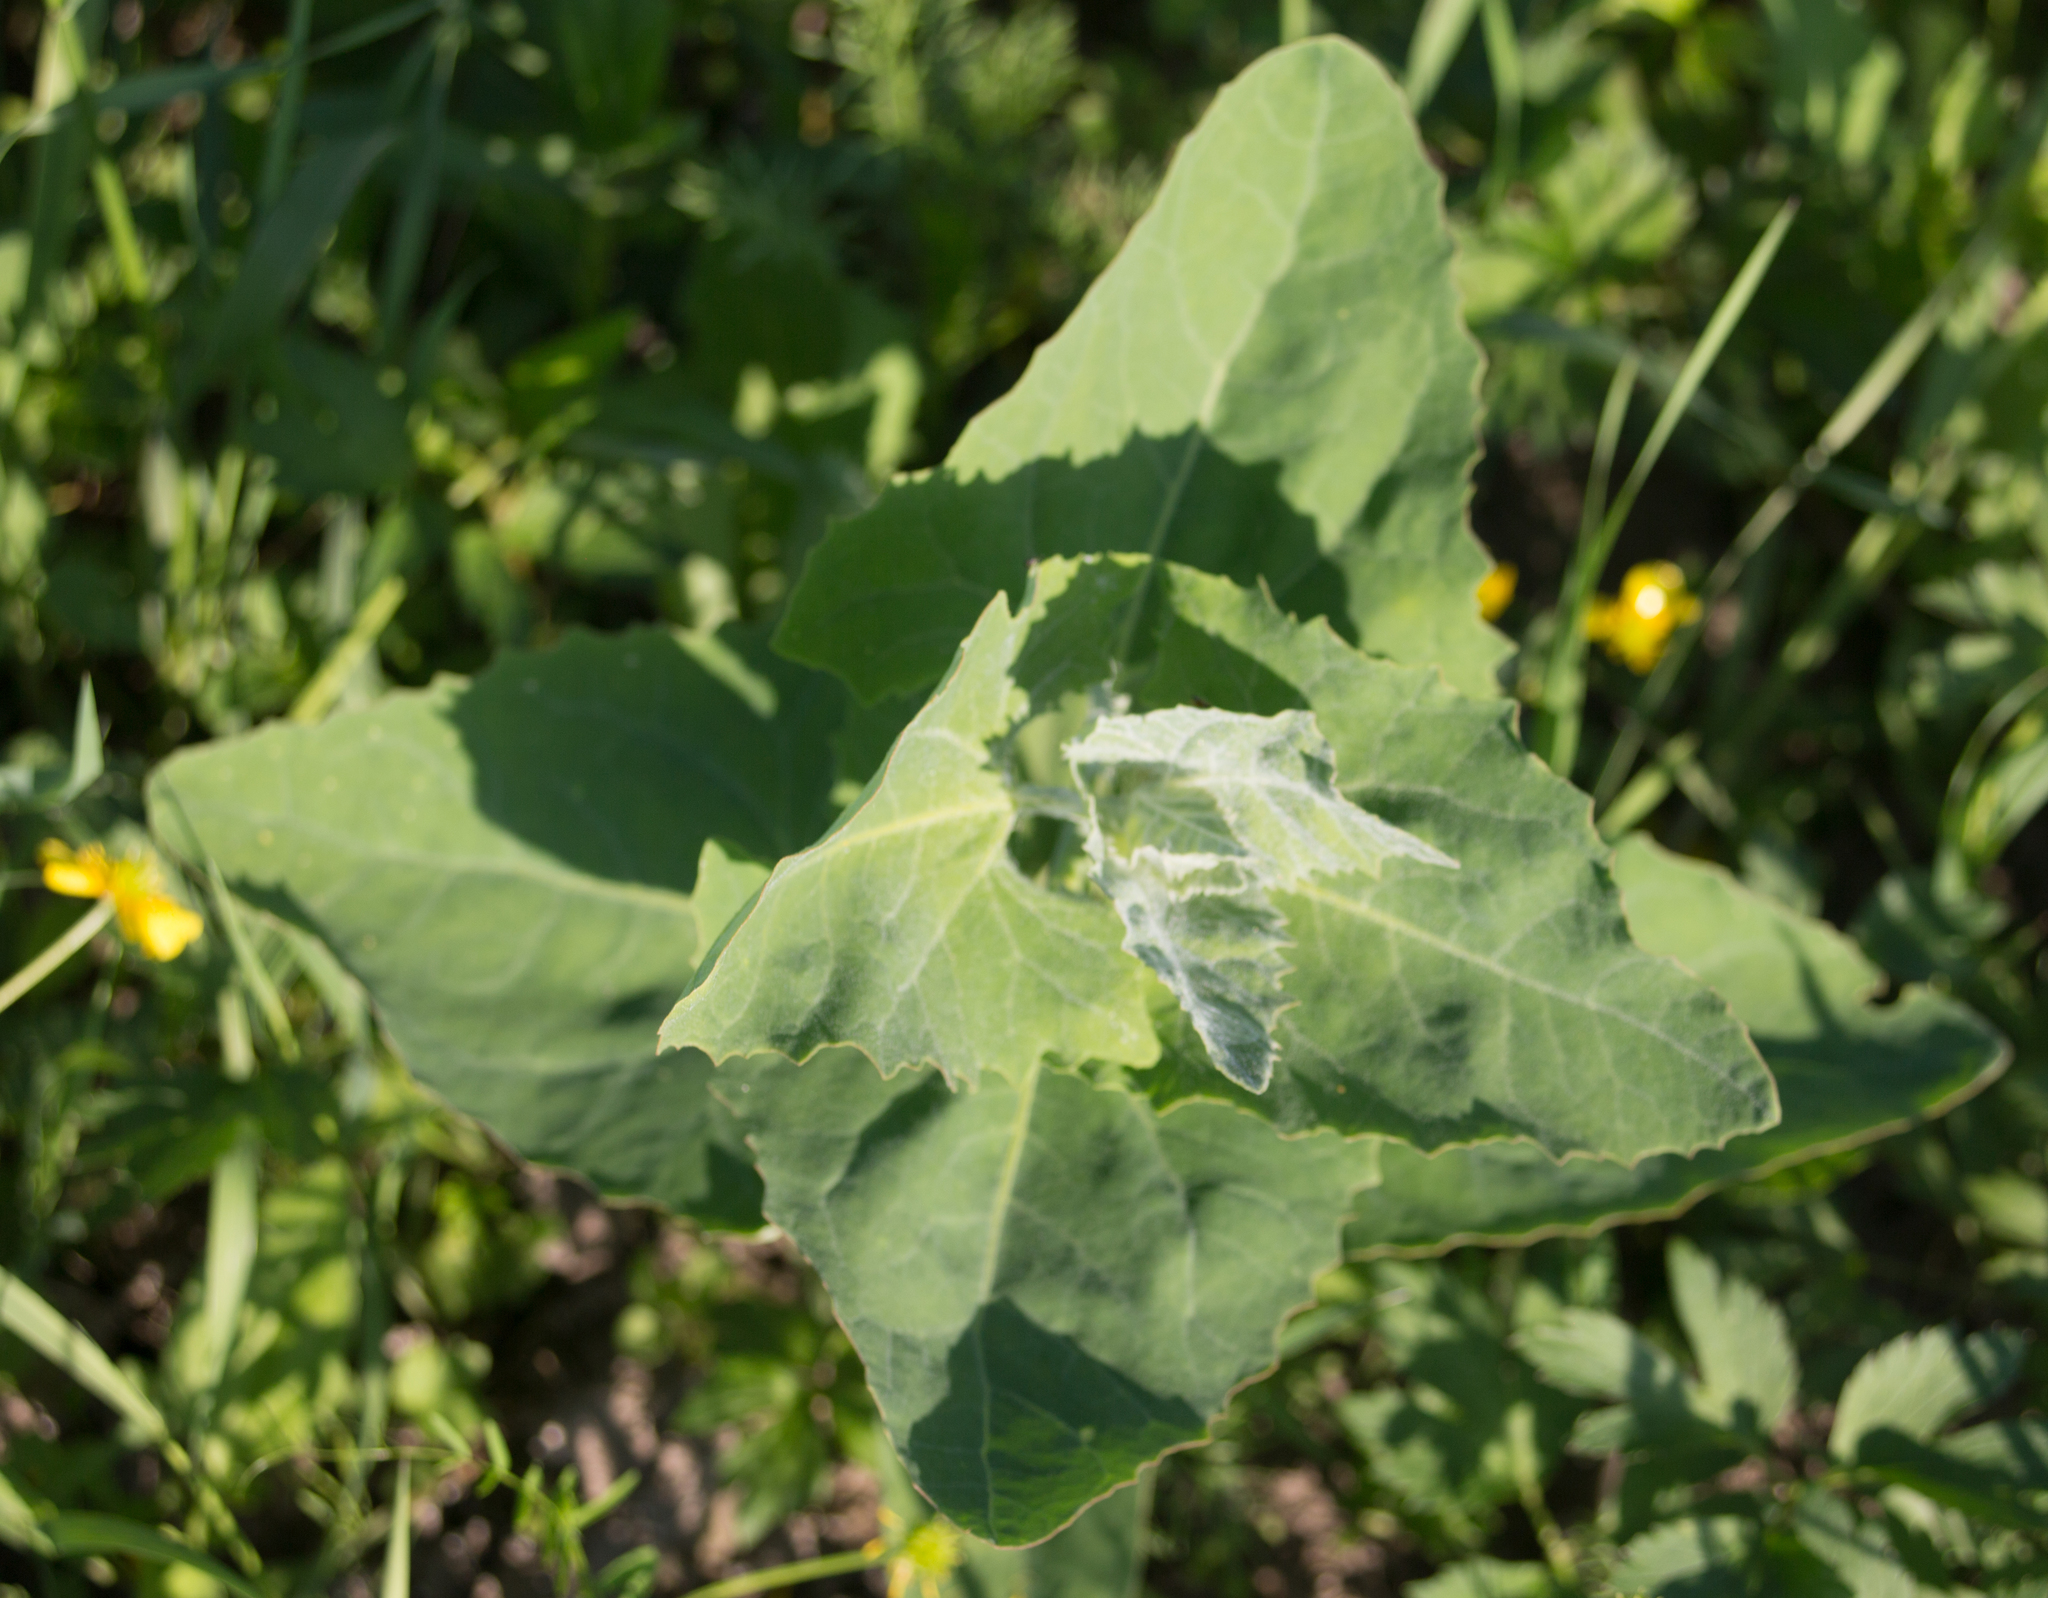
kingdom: Plantae
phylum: Tracheophyta
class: Magnoliopsida
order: Caryophyllales
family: Amaranthaceae
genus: Atriplex
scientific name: Atriplex sagittata
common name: Purple orache
